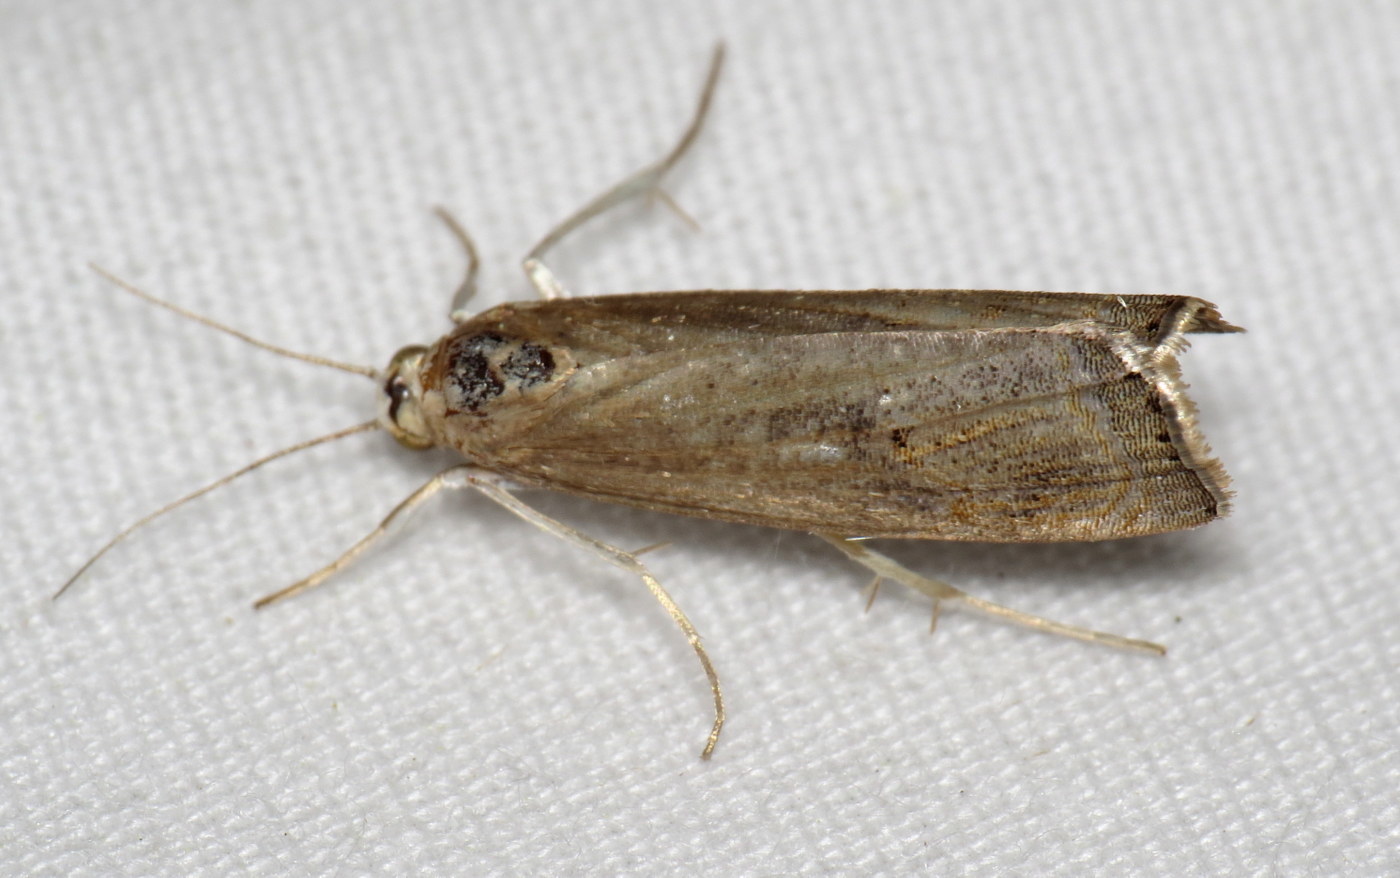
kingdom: Animalia
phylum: Arthropoda
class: Insecta
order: Lepidoptera
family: Crambidae
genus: Parapediasia
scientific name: Parapediasia teterellus
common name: Bluegrass webworm moth
